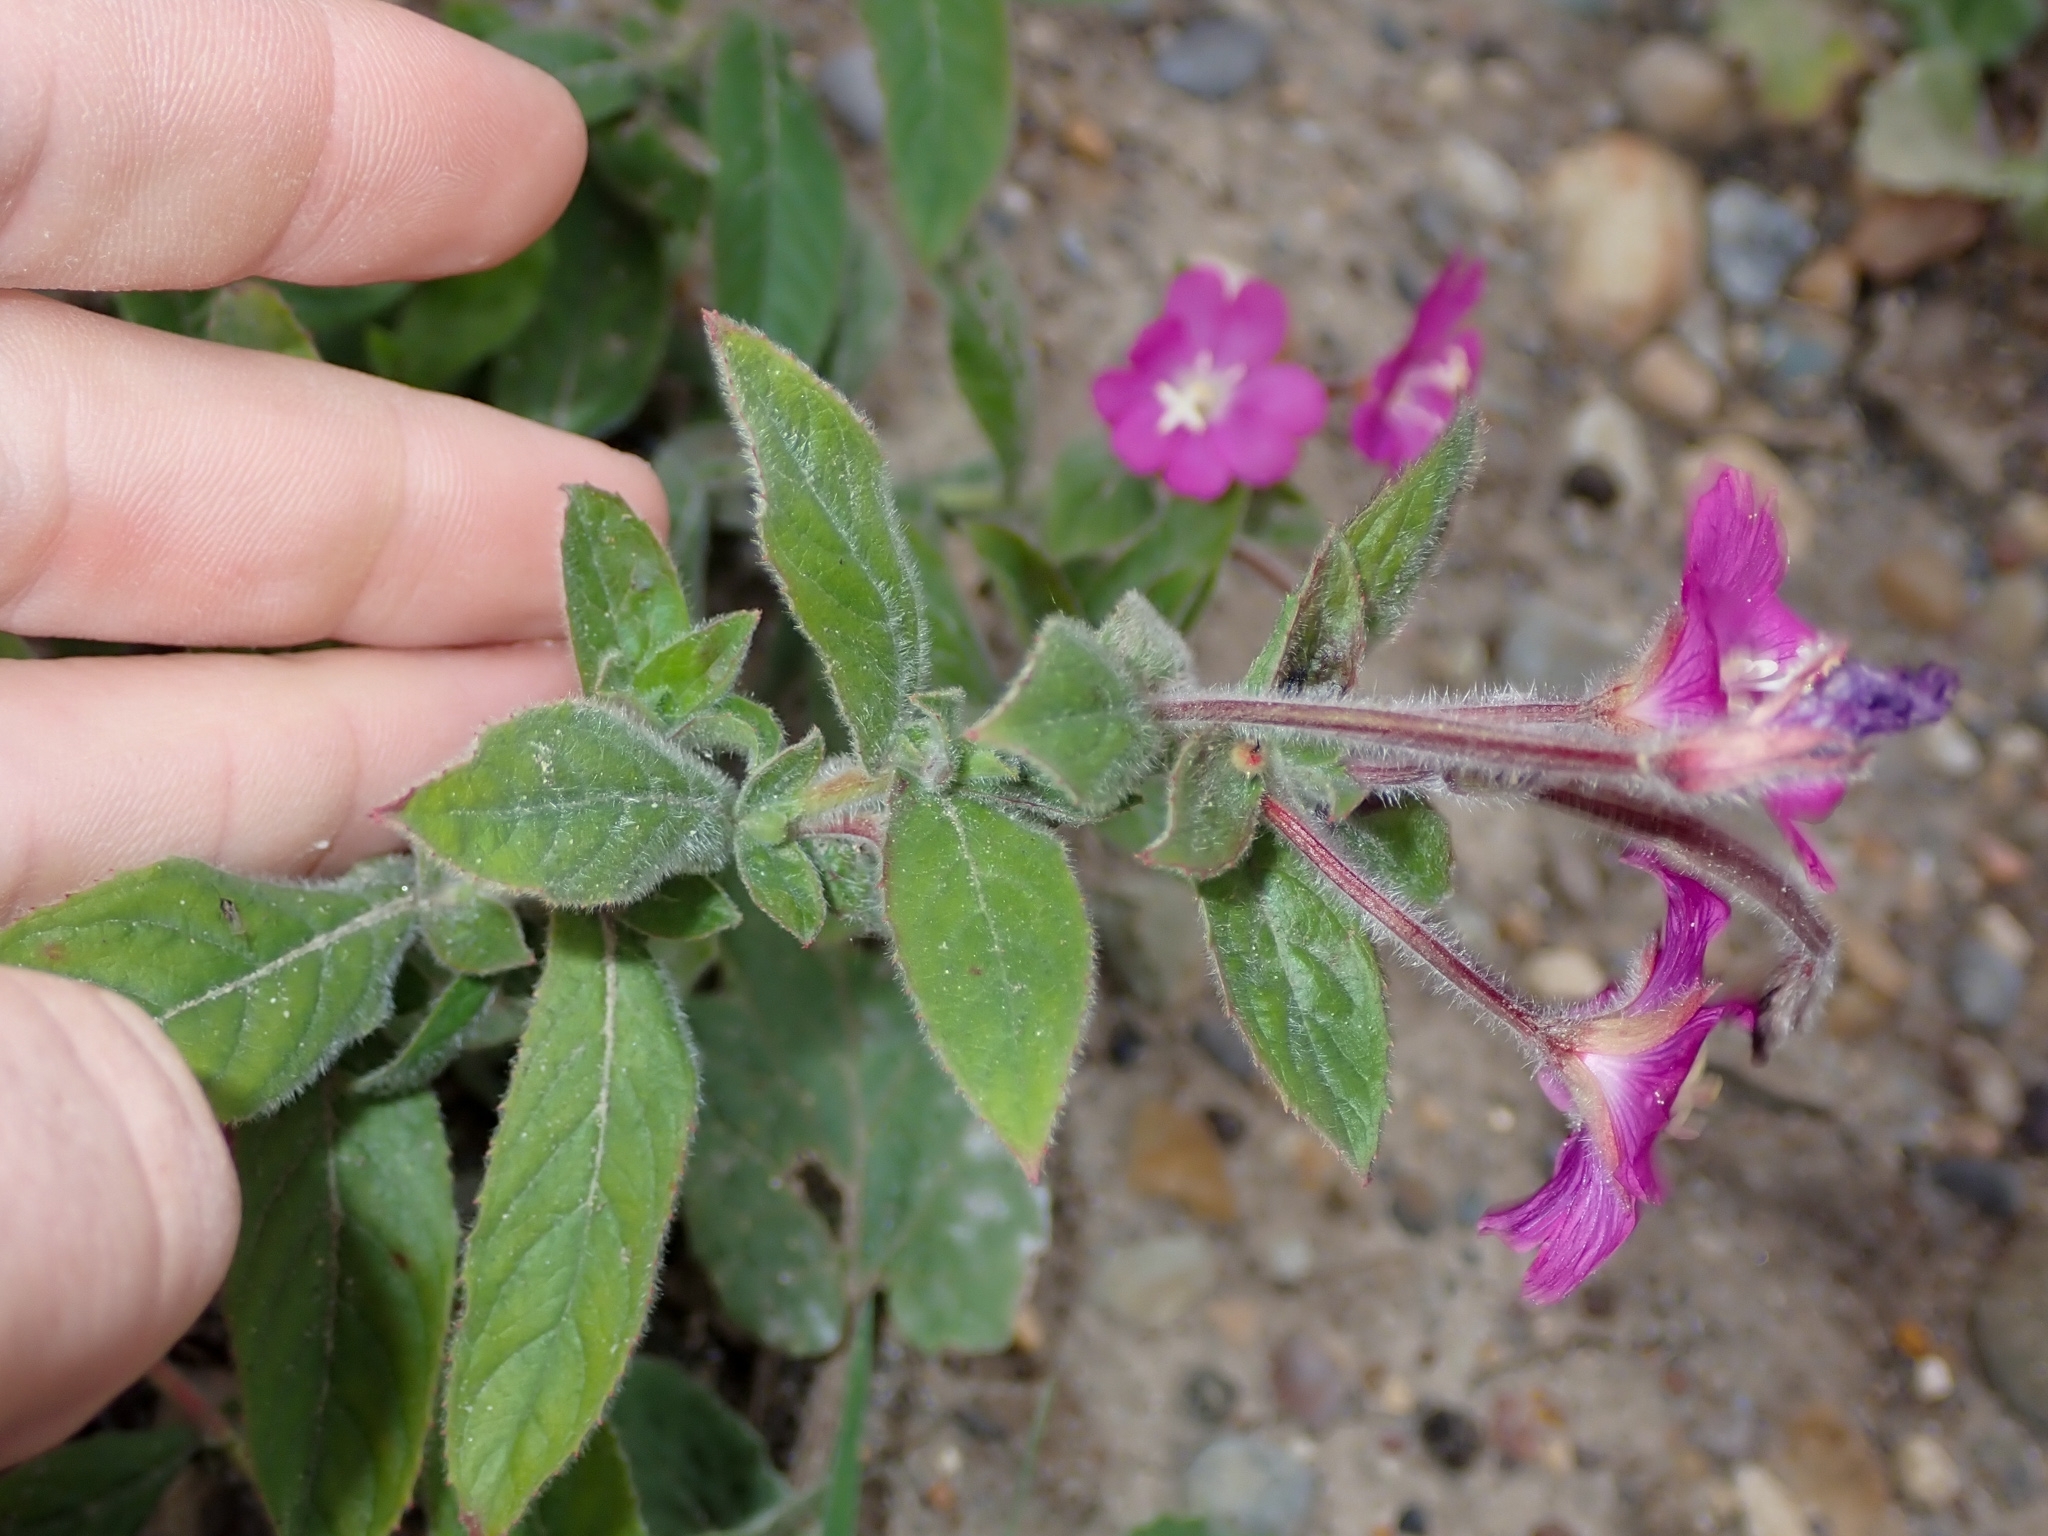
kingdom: Plantae
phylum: Tracheophyta
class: Magnoliopsida
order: Myrtales
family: Onagraceae
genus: Epilobium
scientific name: Epilobium hirsutum
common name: Great willowherb
